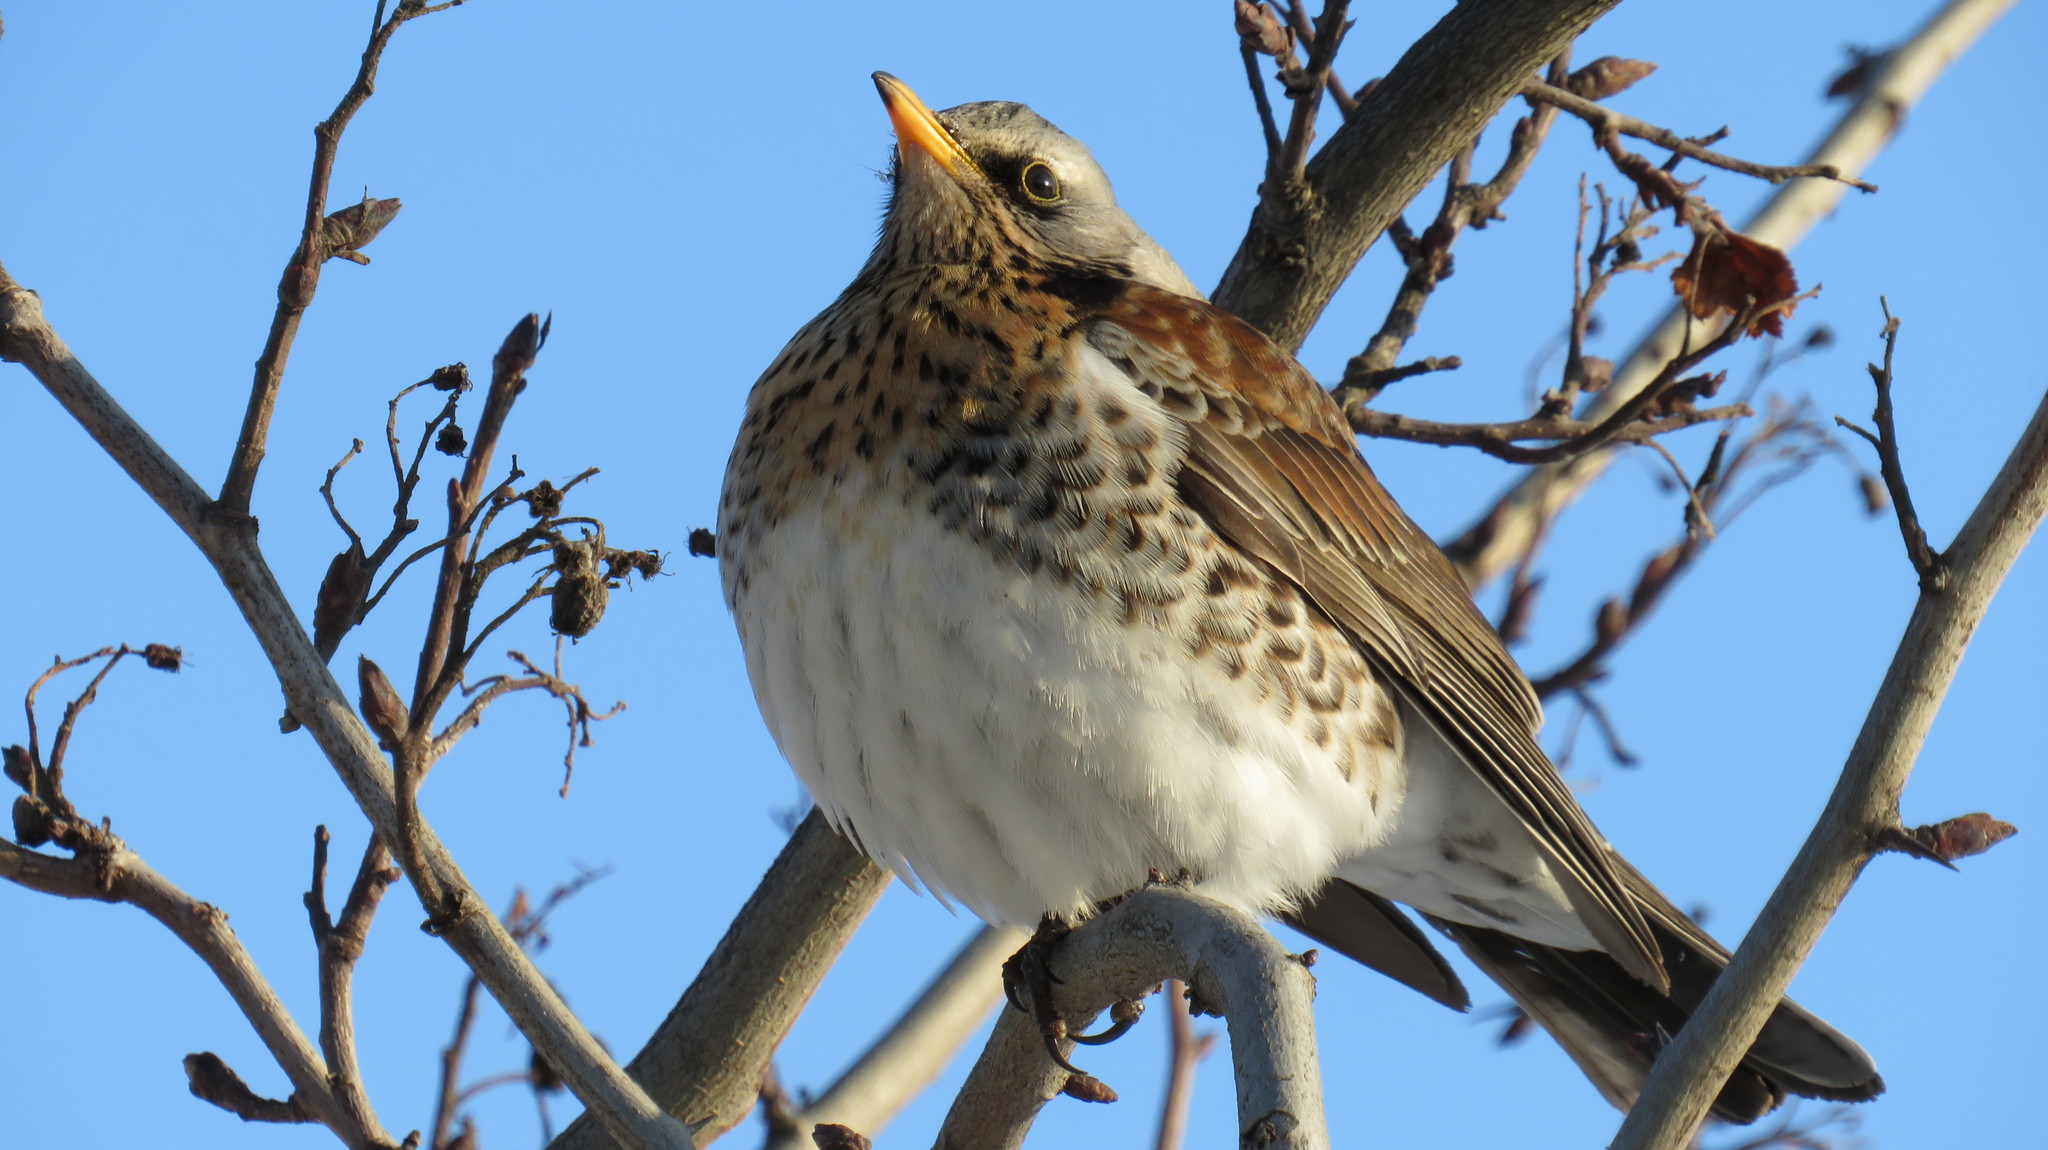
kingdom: Animalia
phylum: Chordata
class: Aves
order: Passeriformes
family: Turdidae
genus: Turdus
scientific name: Turdus pilaris
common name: Fieldfare
